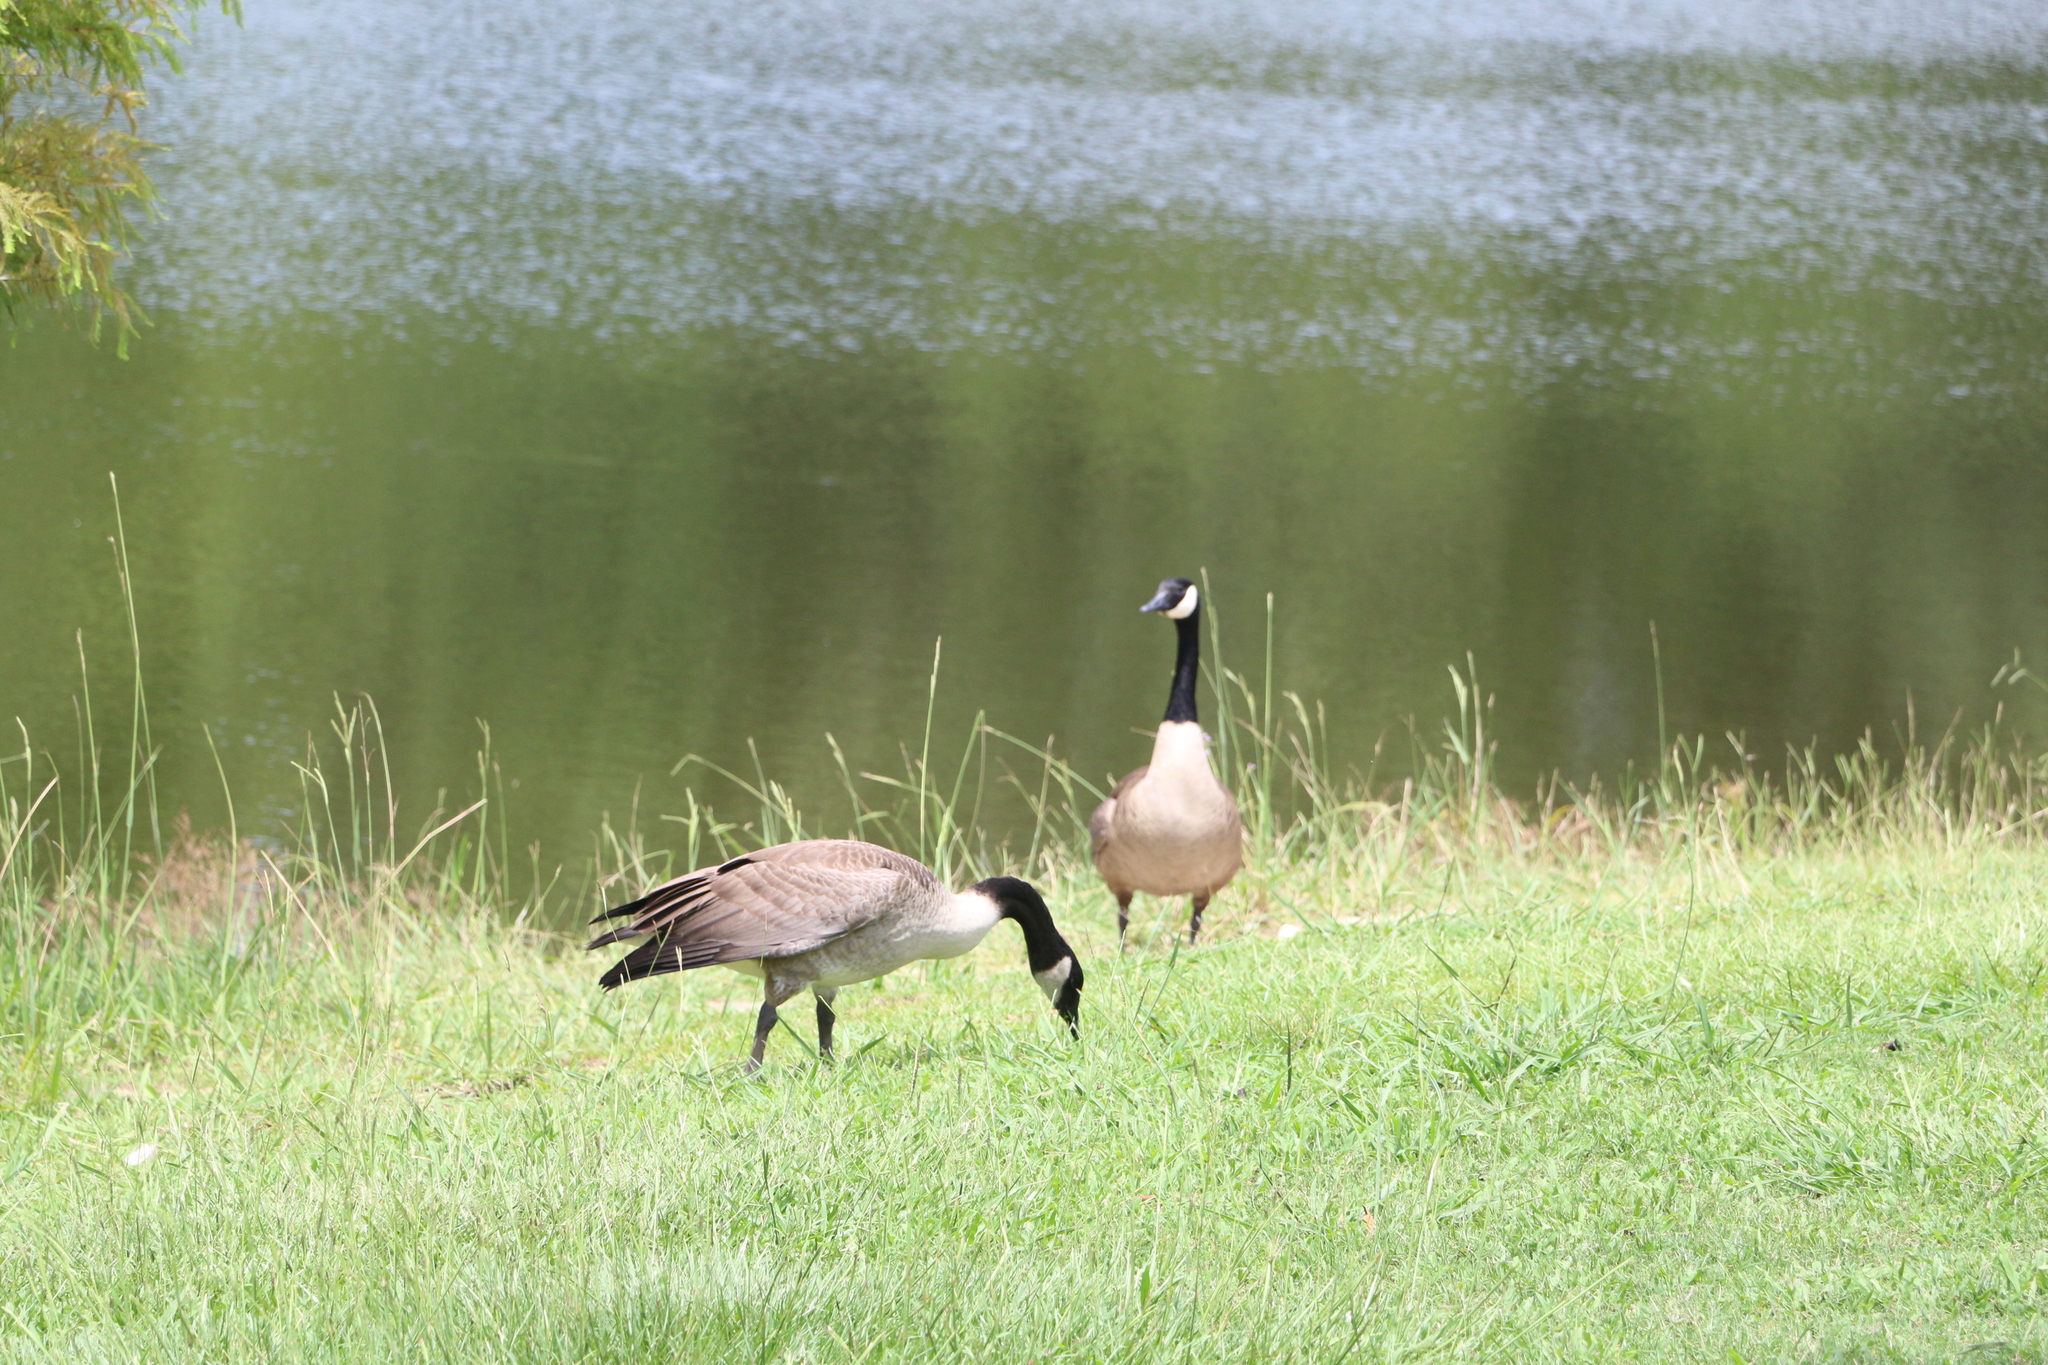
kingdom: Animalia
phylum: Chordata
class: Aves
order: Anseriformes
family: Anatidae
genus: Branta
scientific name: Branta canadensis
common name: Canada goose
